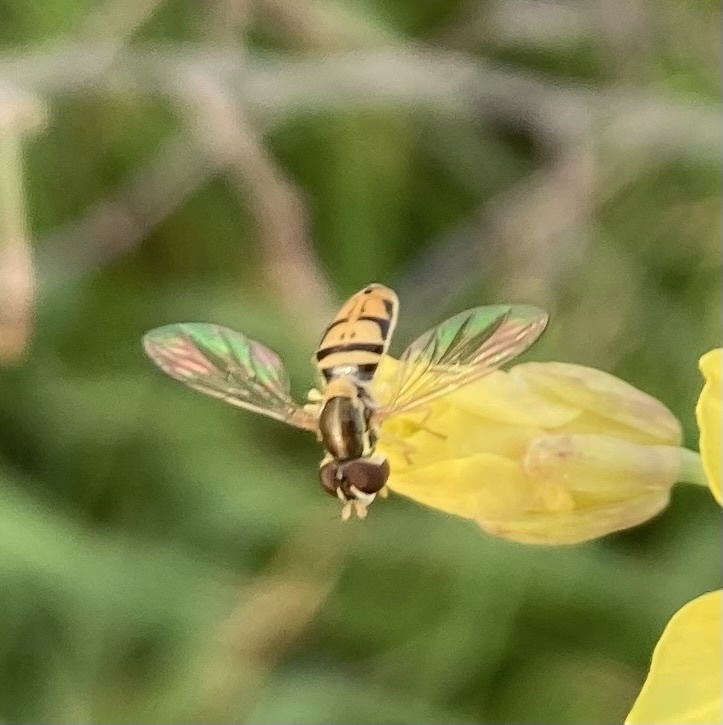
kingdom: Animalia
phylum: Arthropoda
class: Insecta
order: Diptera
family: Syrphidae
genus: Toxomerus
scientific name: Toxomerus marginatus
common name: Syrphid fly
